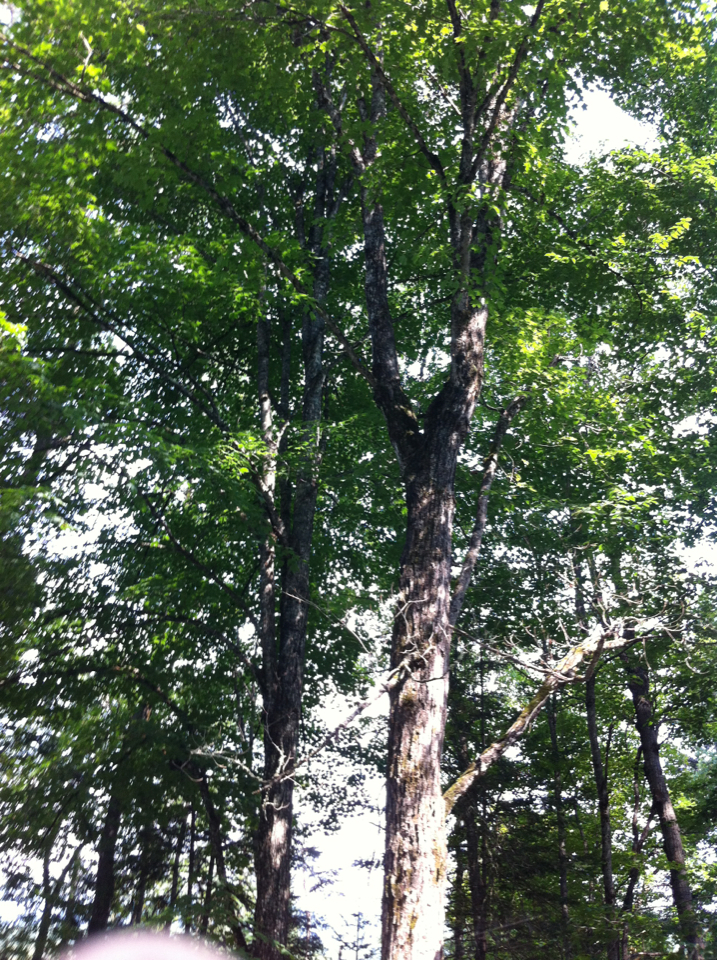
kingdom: Plantae
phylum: Tracheophyta
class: Magnoliopsida
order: Sapindales
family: Sapindaceae
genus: Acer
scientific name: Acer saccharum
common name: Sugar maple
